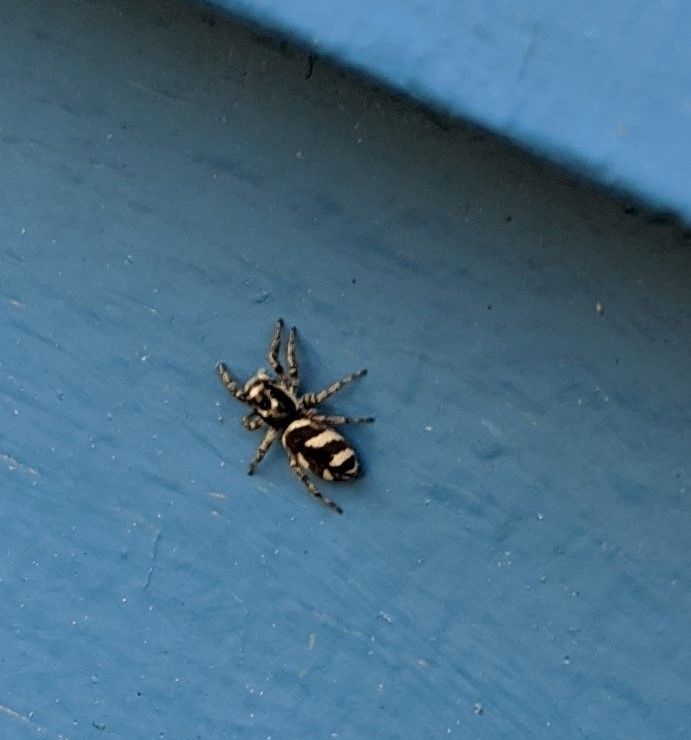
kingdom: Animalia
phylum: Arthropoda
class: Arachnida
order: Araneae
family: Salticidae
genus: Salticus
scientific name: Salticus scenicus
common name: Zebra jumper
